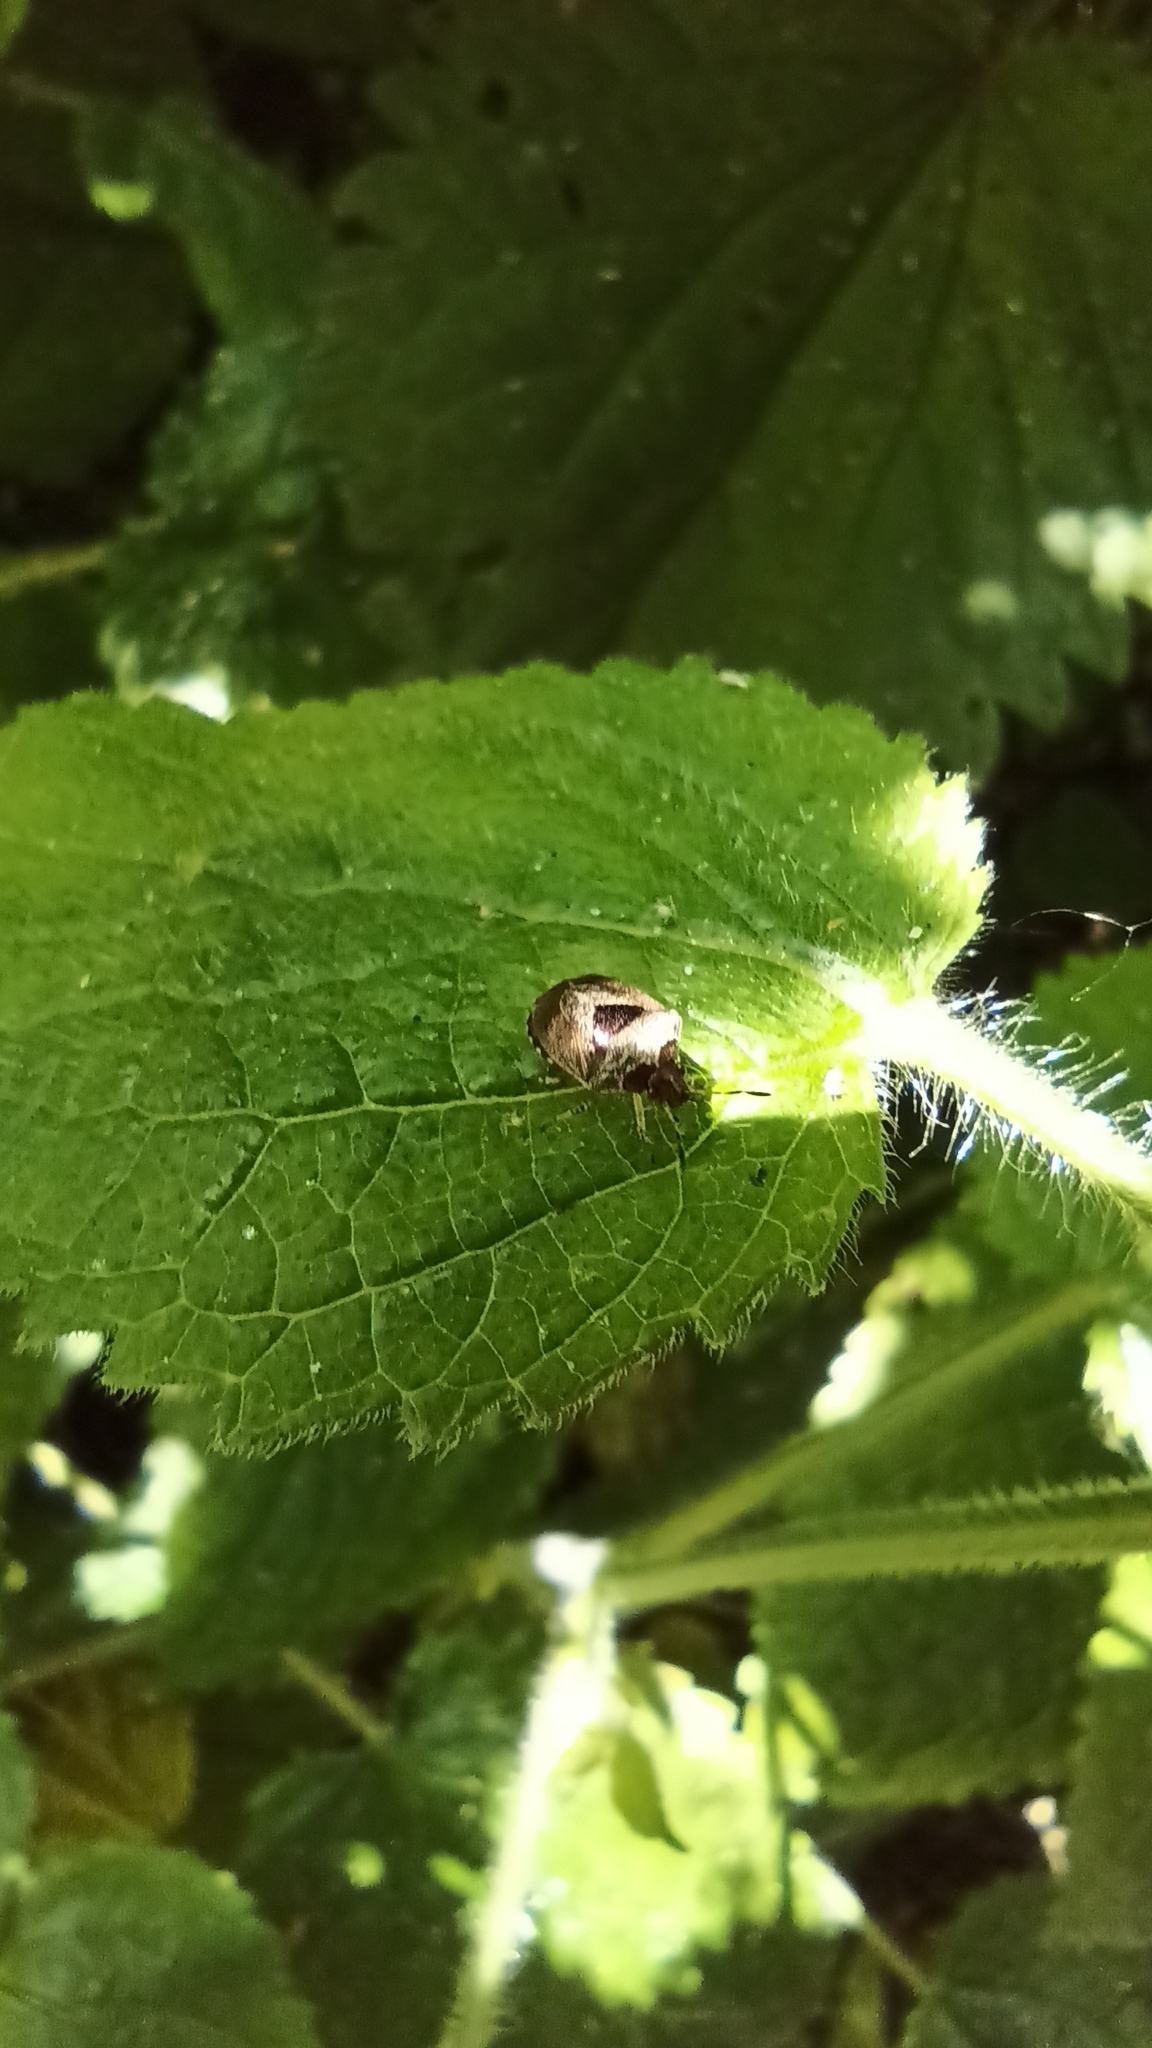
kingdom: Animalia
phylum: Arthropoda
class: Insecta
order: Hemiptera
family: Pentatomidae
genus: Eysarcoris
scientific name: Eysarcoris venustissimus
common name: Woundwort shieldbug
